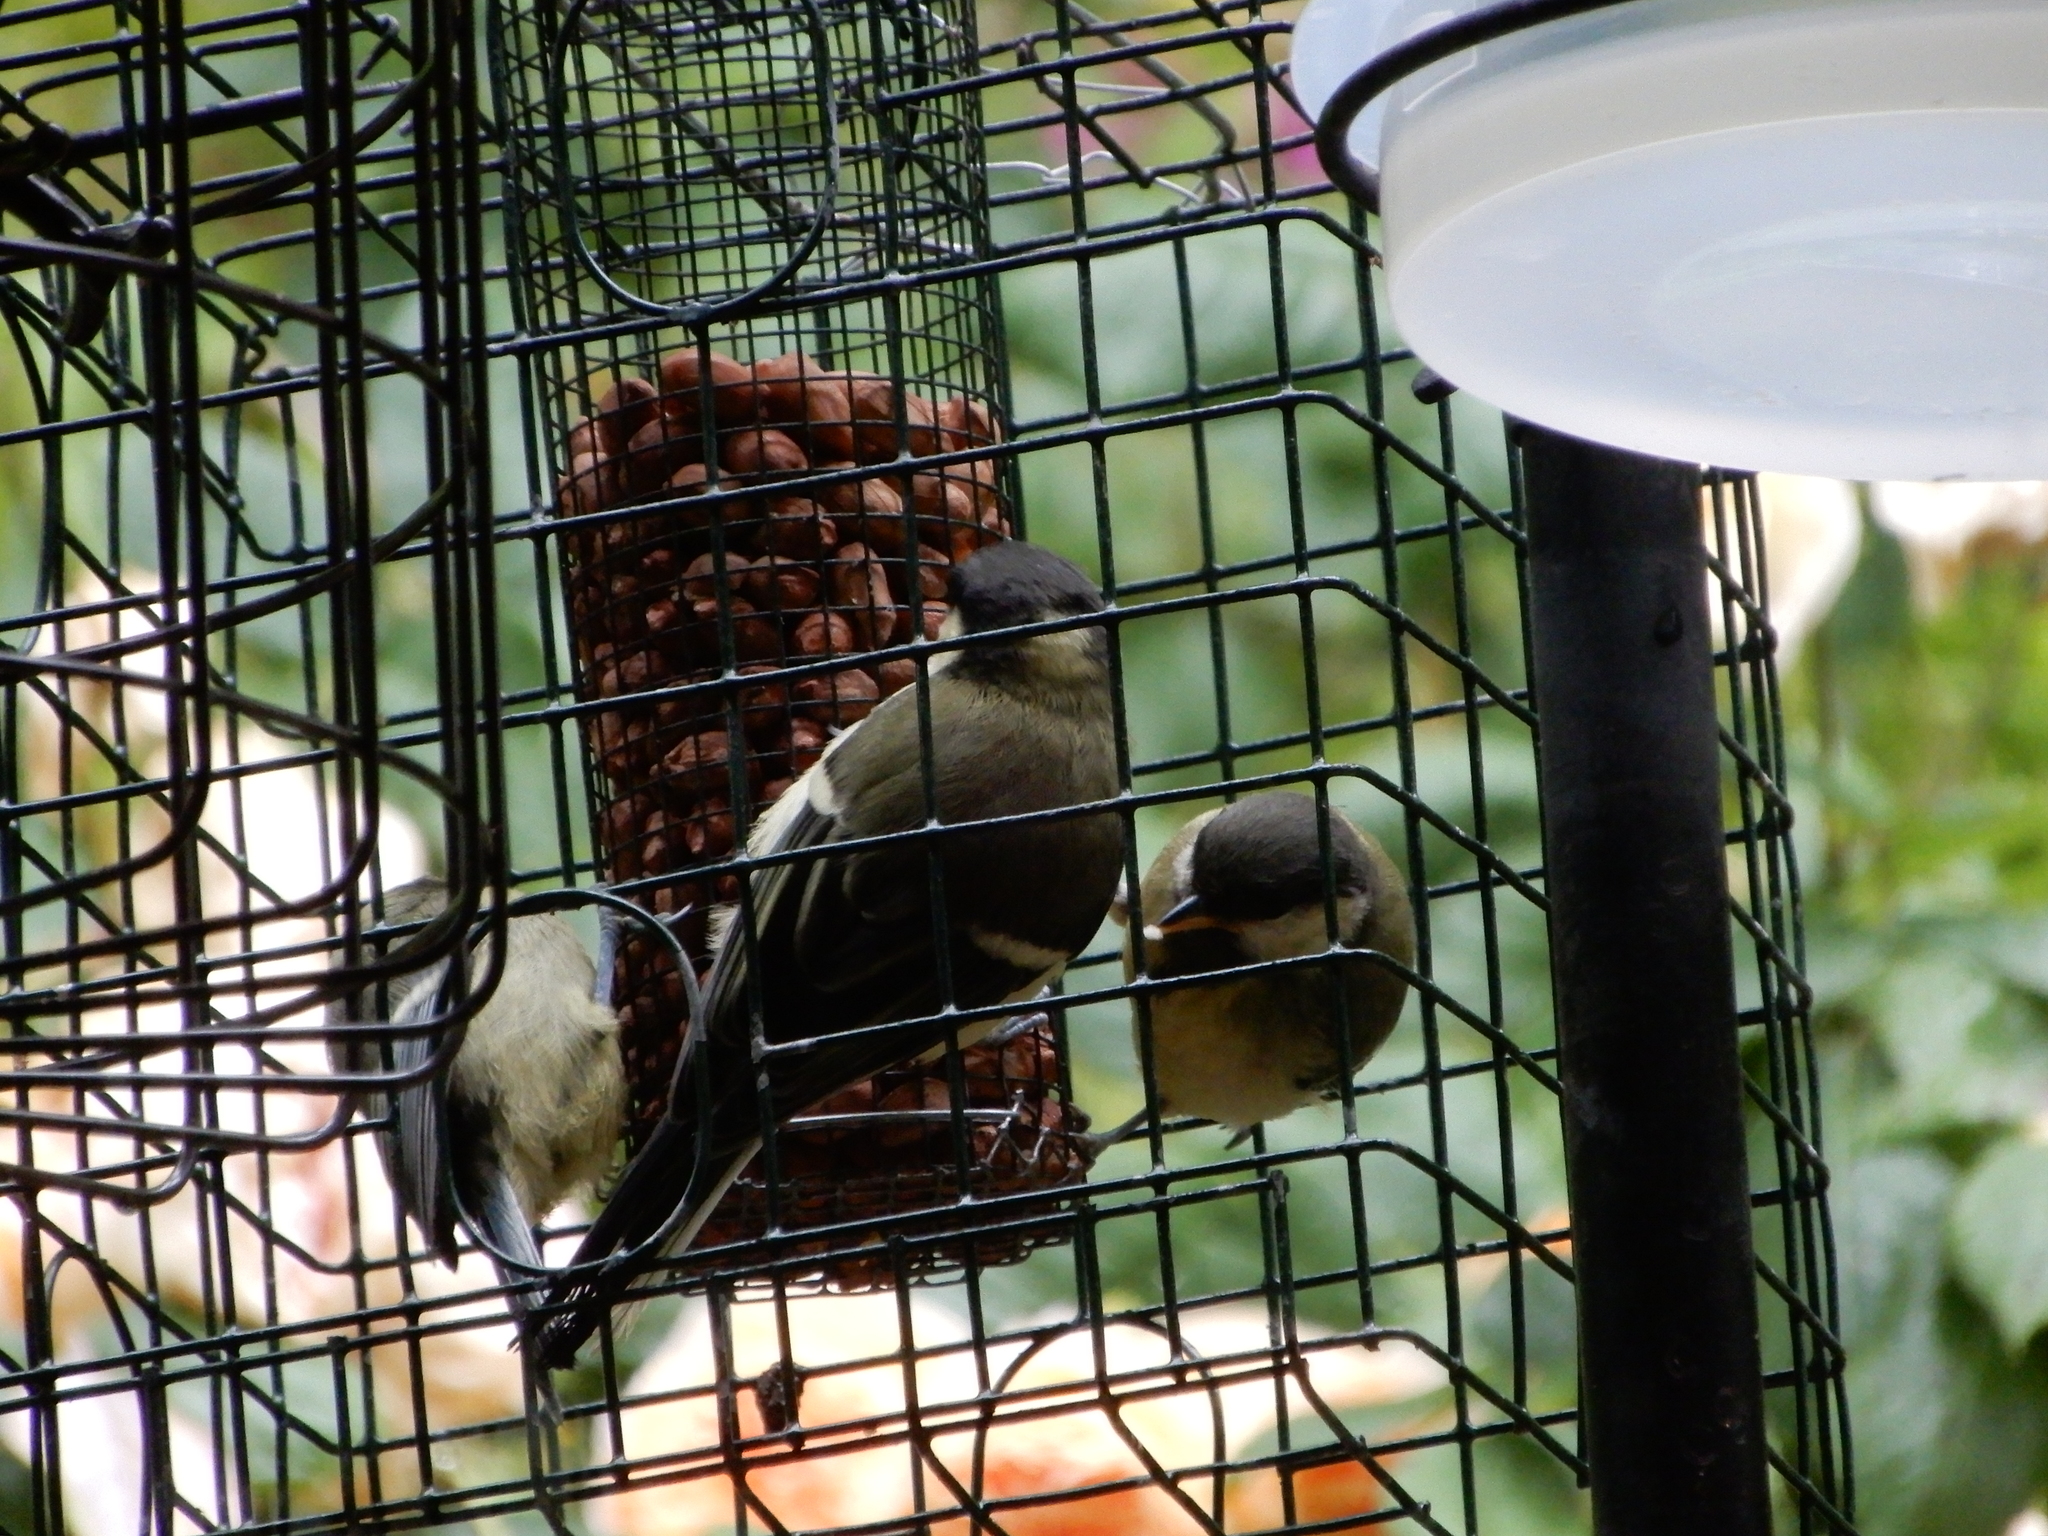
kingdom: Animalia
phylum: Chordata
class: Aves
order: Passeriformes
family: Paridae
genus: Parus
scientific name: Parus major
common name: Great tit
